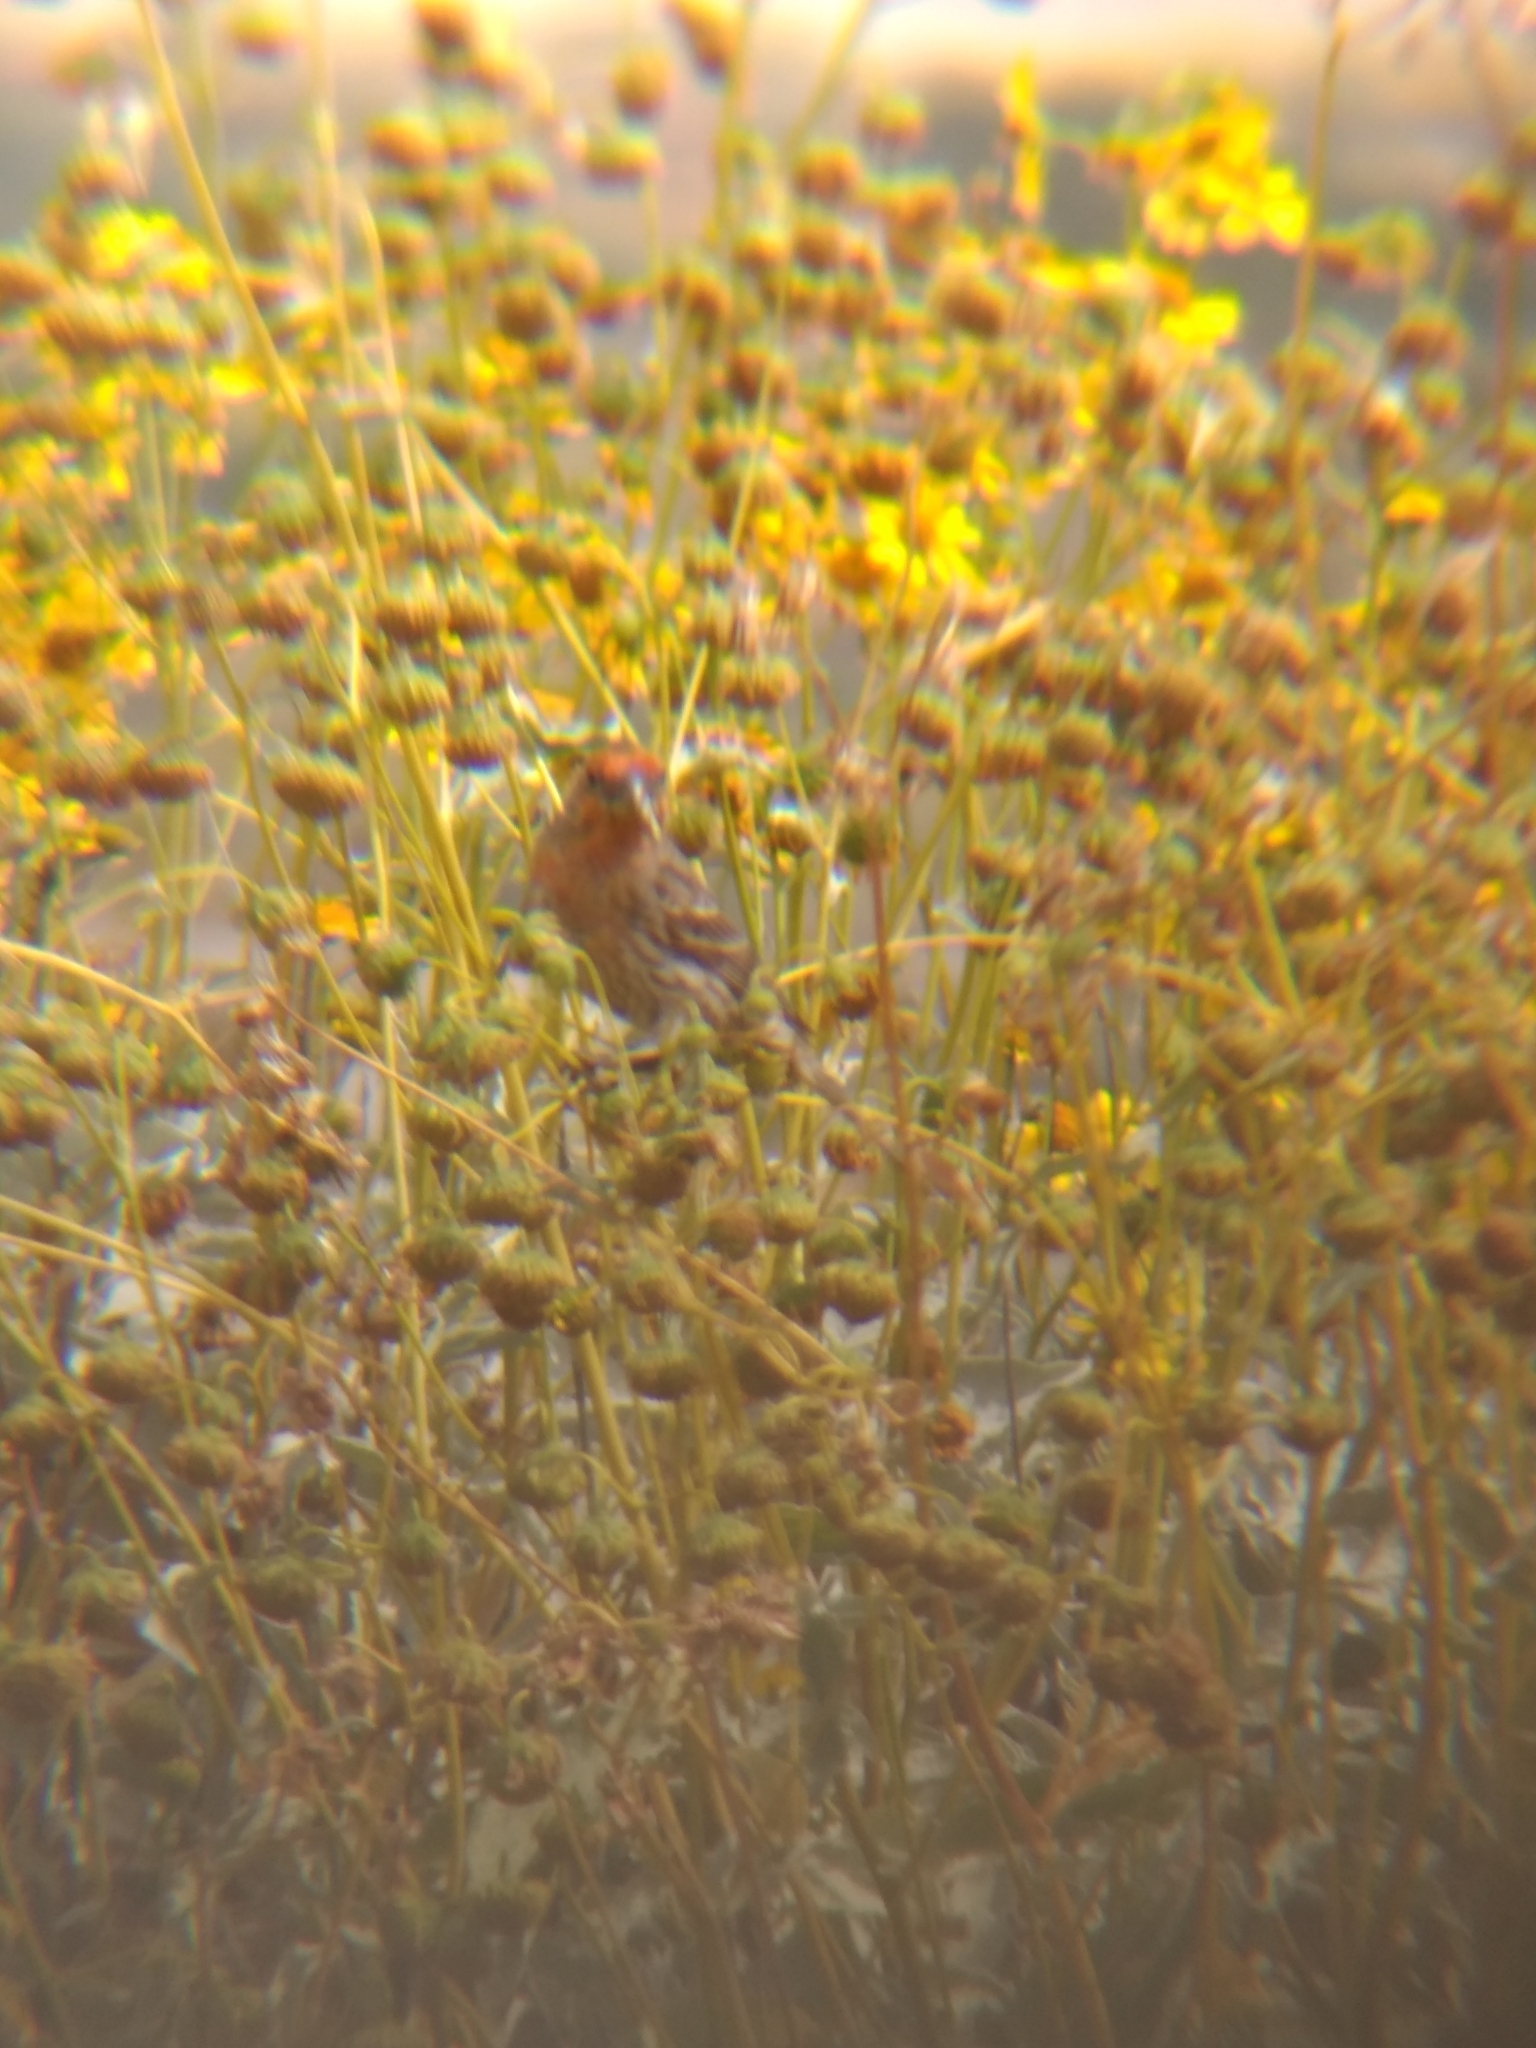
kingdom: Animalia
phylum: Chordata
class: Aves
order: Passeriformes
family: Fringillidae
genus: Haemorhous
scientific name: Haemorhous mexicanus
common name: House finch
